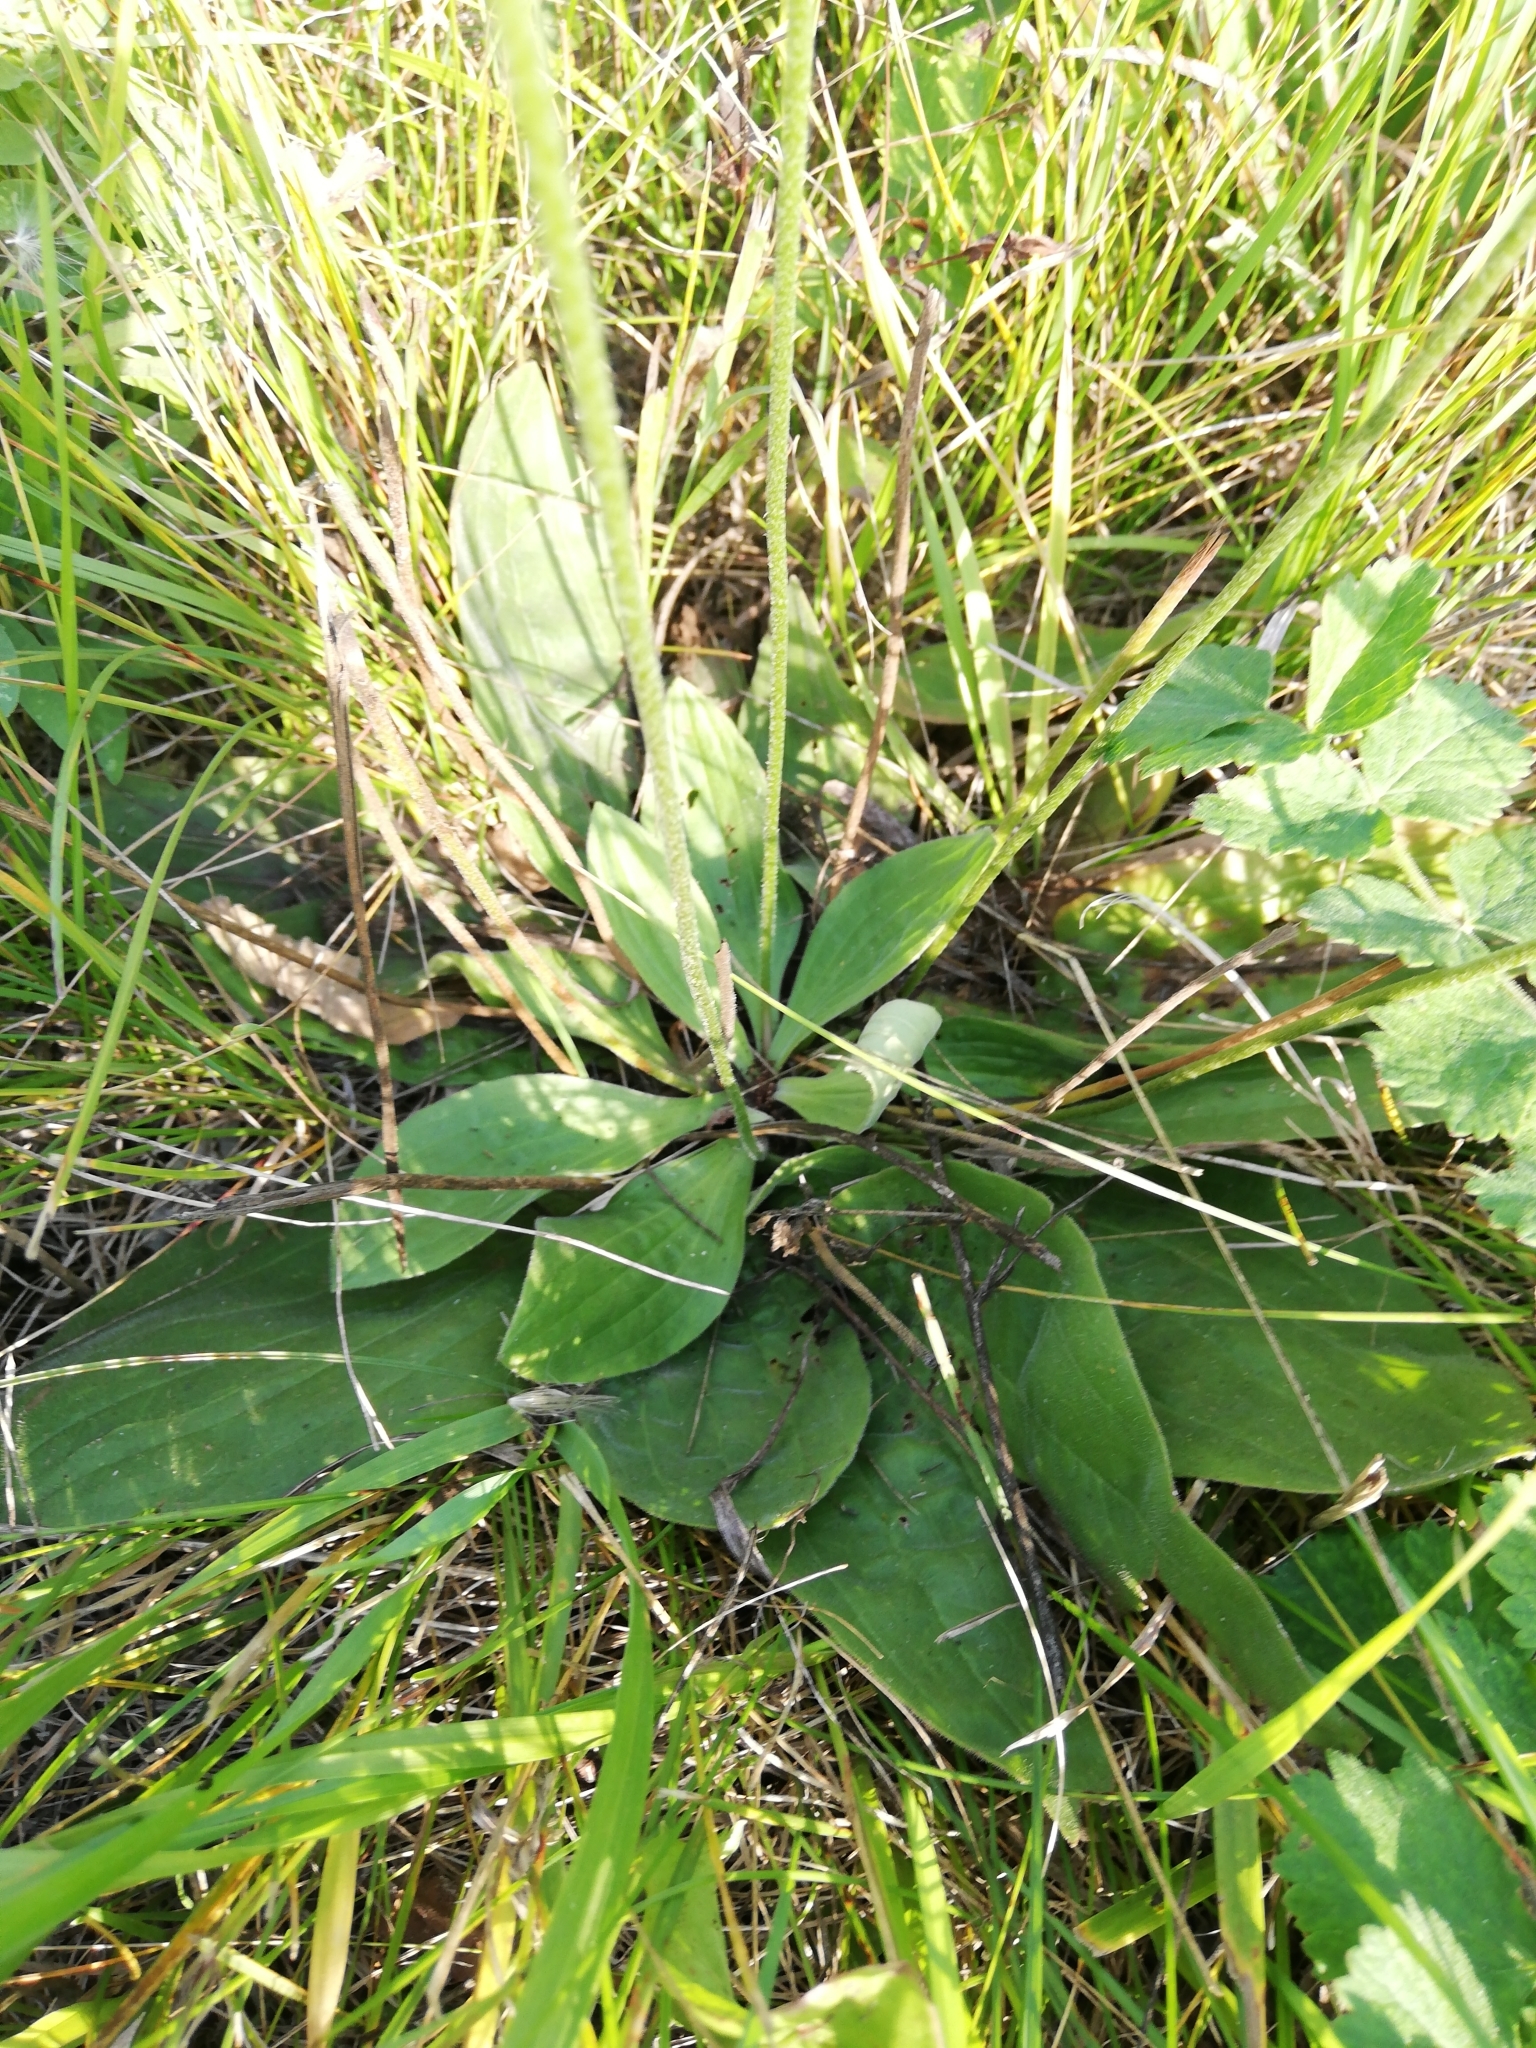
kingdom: Plantae
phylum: Tracheophyta
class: Magnoliopsida
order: Lamiales
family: Plantaginaceae
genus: Plantago
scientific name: Plantago media
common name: Hoary plantain
